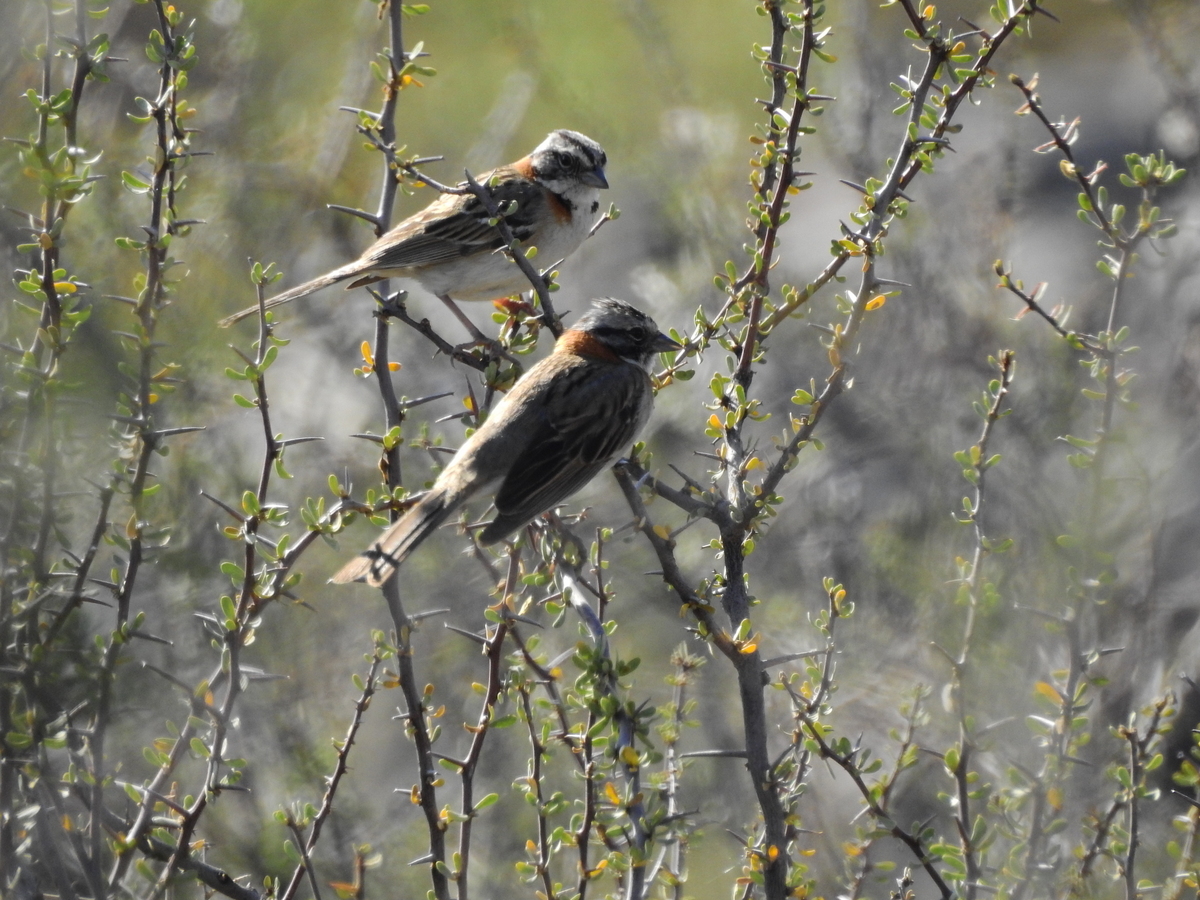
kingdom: Animalia
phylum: Chordata
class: Aves
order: Passeriformes
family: Passerellidae
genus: Zonotrichia
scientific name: Zonotrichia capensis
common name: Rufous-collared sparrow
